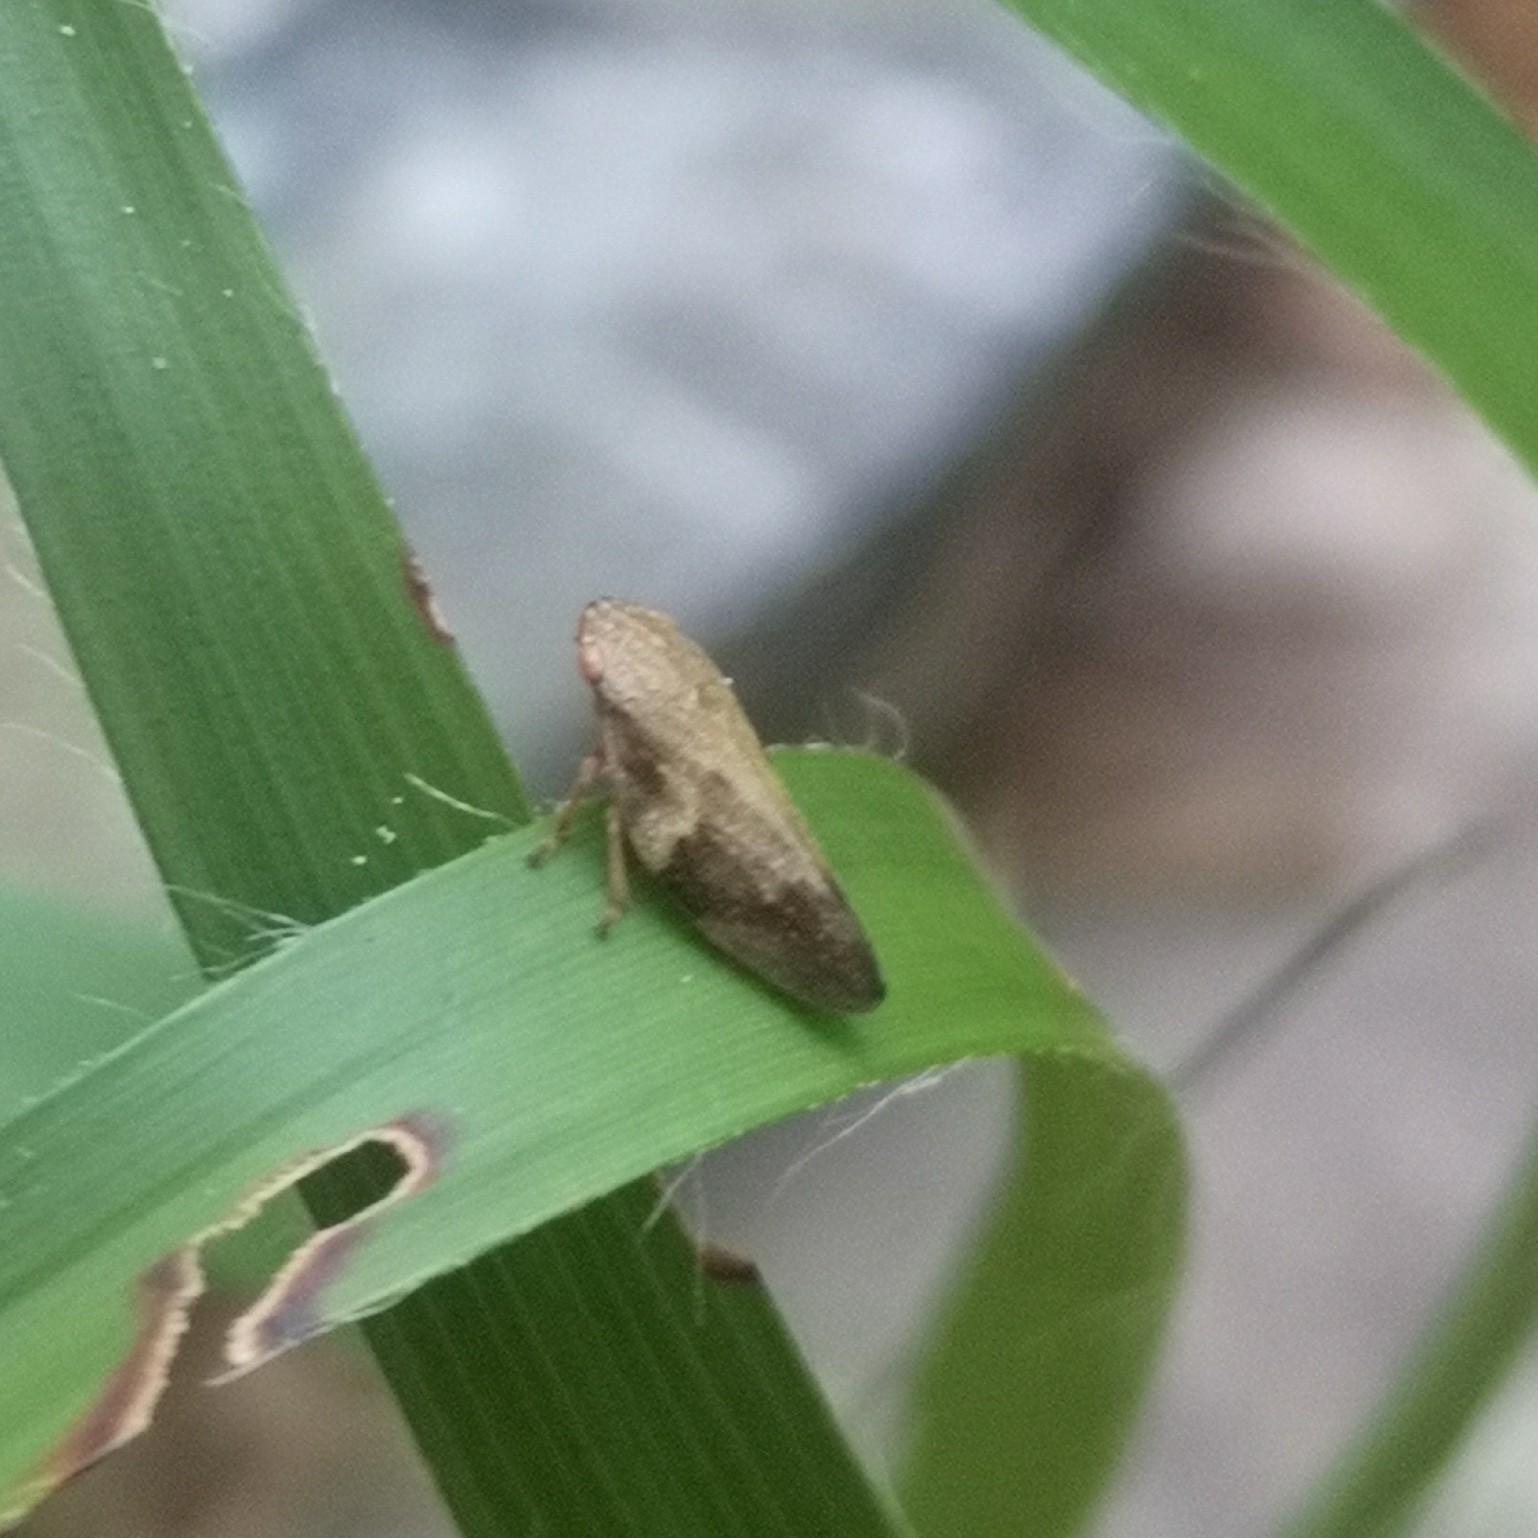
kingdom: Animalia
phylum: Arthropoda
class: Insecta
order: Hemiptera
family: Aphrophoridae
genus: Aphrophora
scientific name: Aphrophora alni
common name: European alder spittlebug
